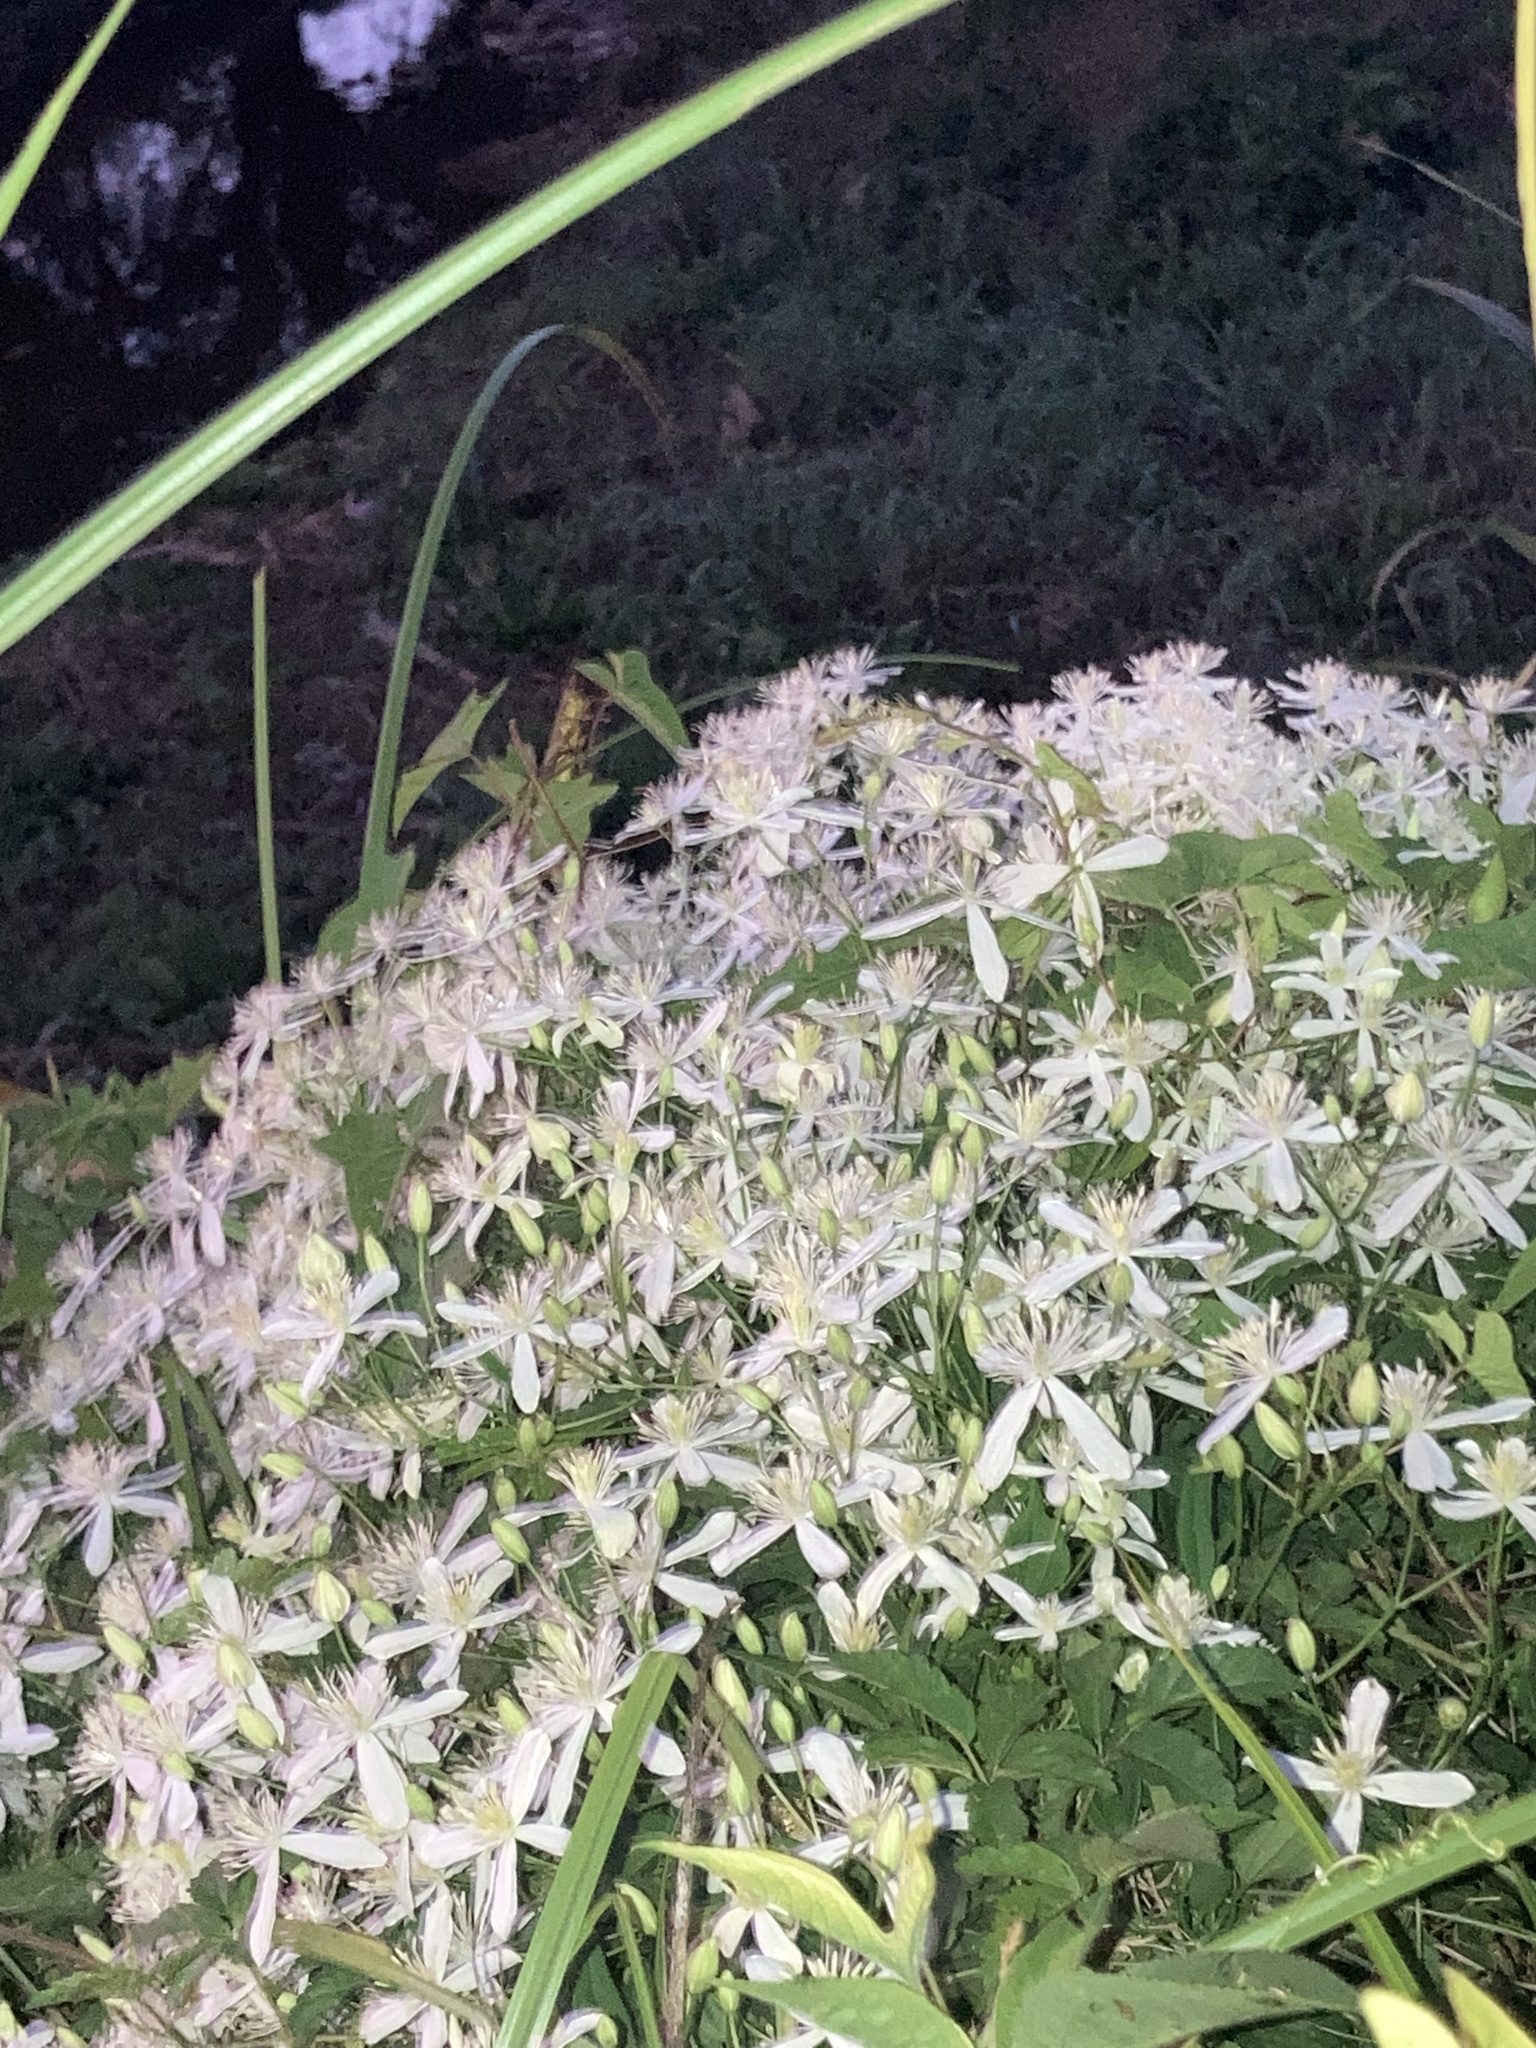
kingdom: Plantae
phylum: Tracheophyta
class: Magnoliopsida
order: Ranunculales
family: Ranunculaceae
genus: Clematis
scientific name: Clematis terniflora
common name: Sweet autumn clematis
